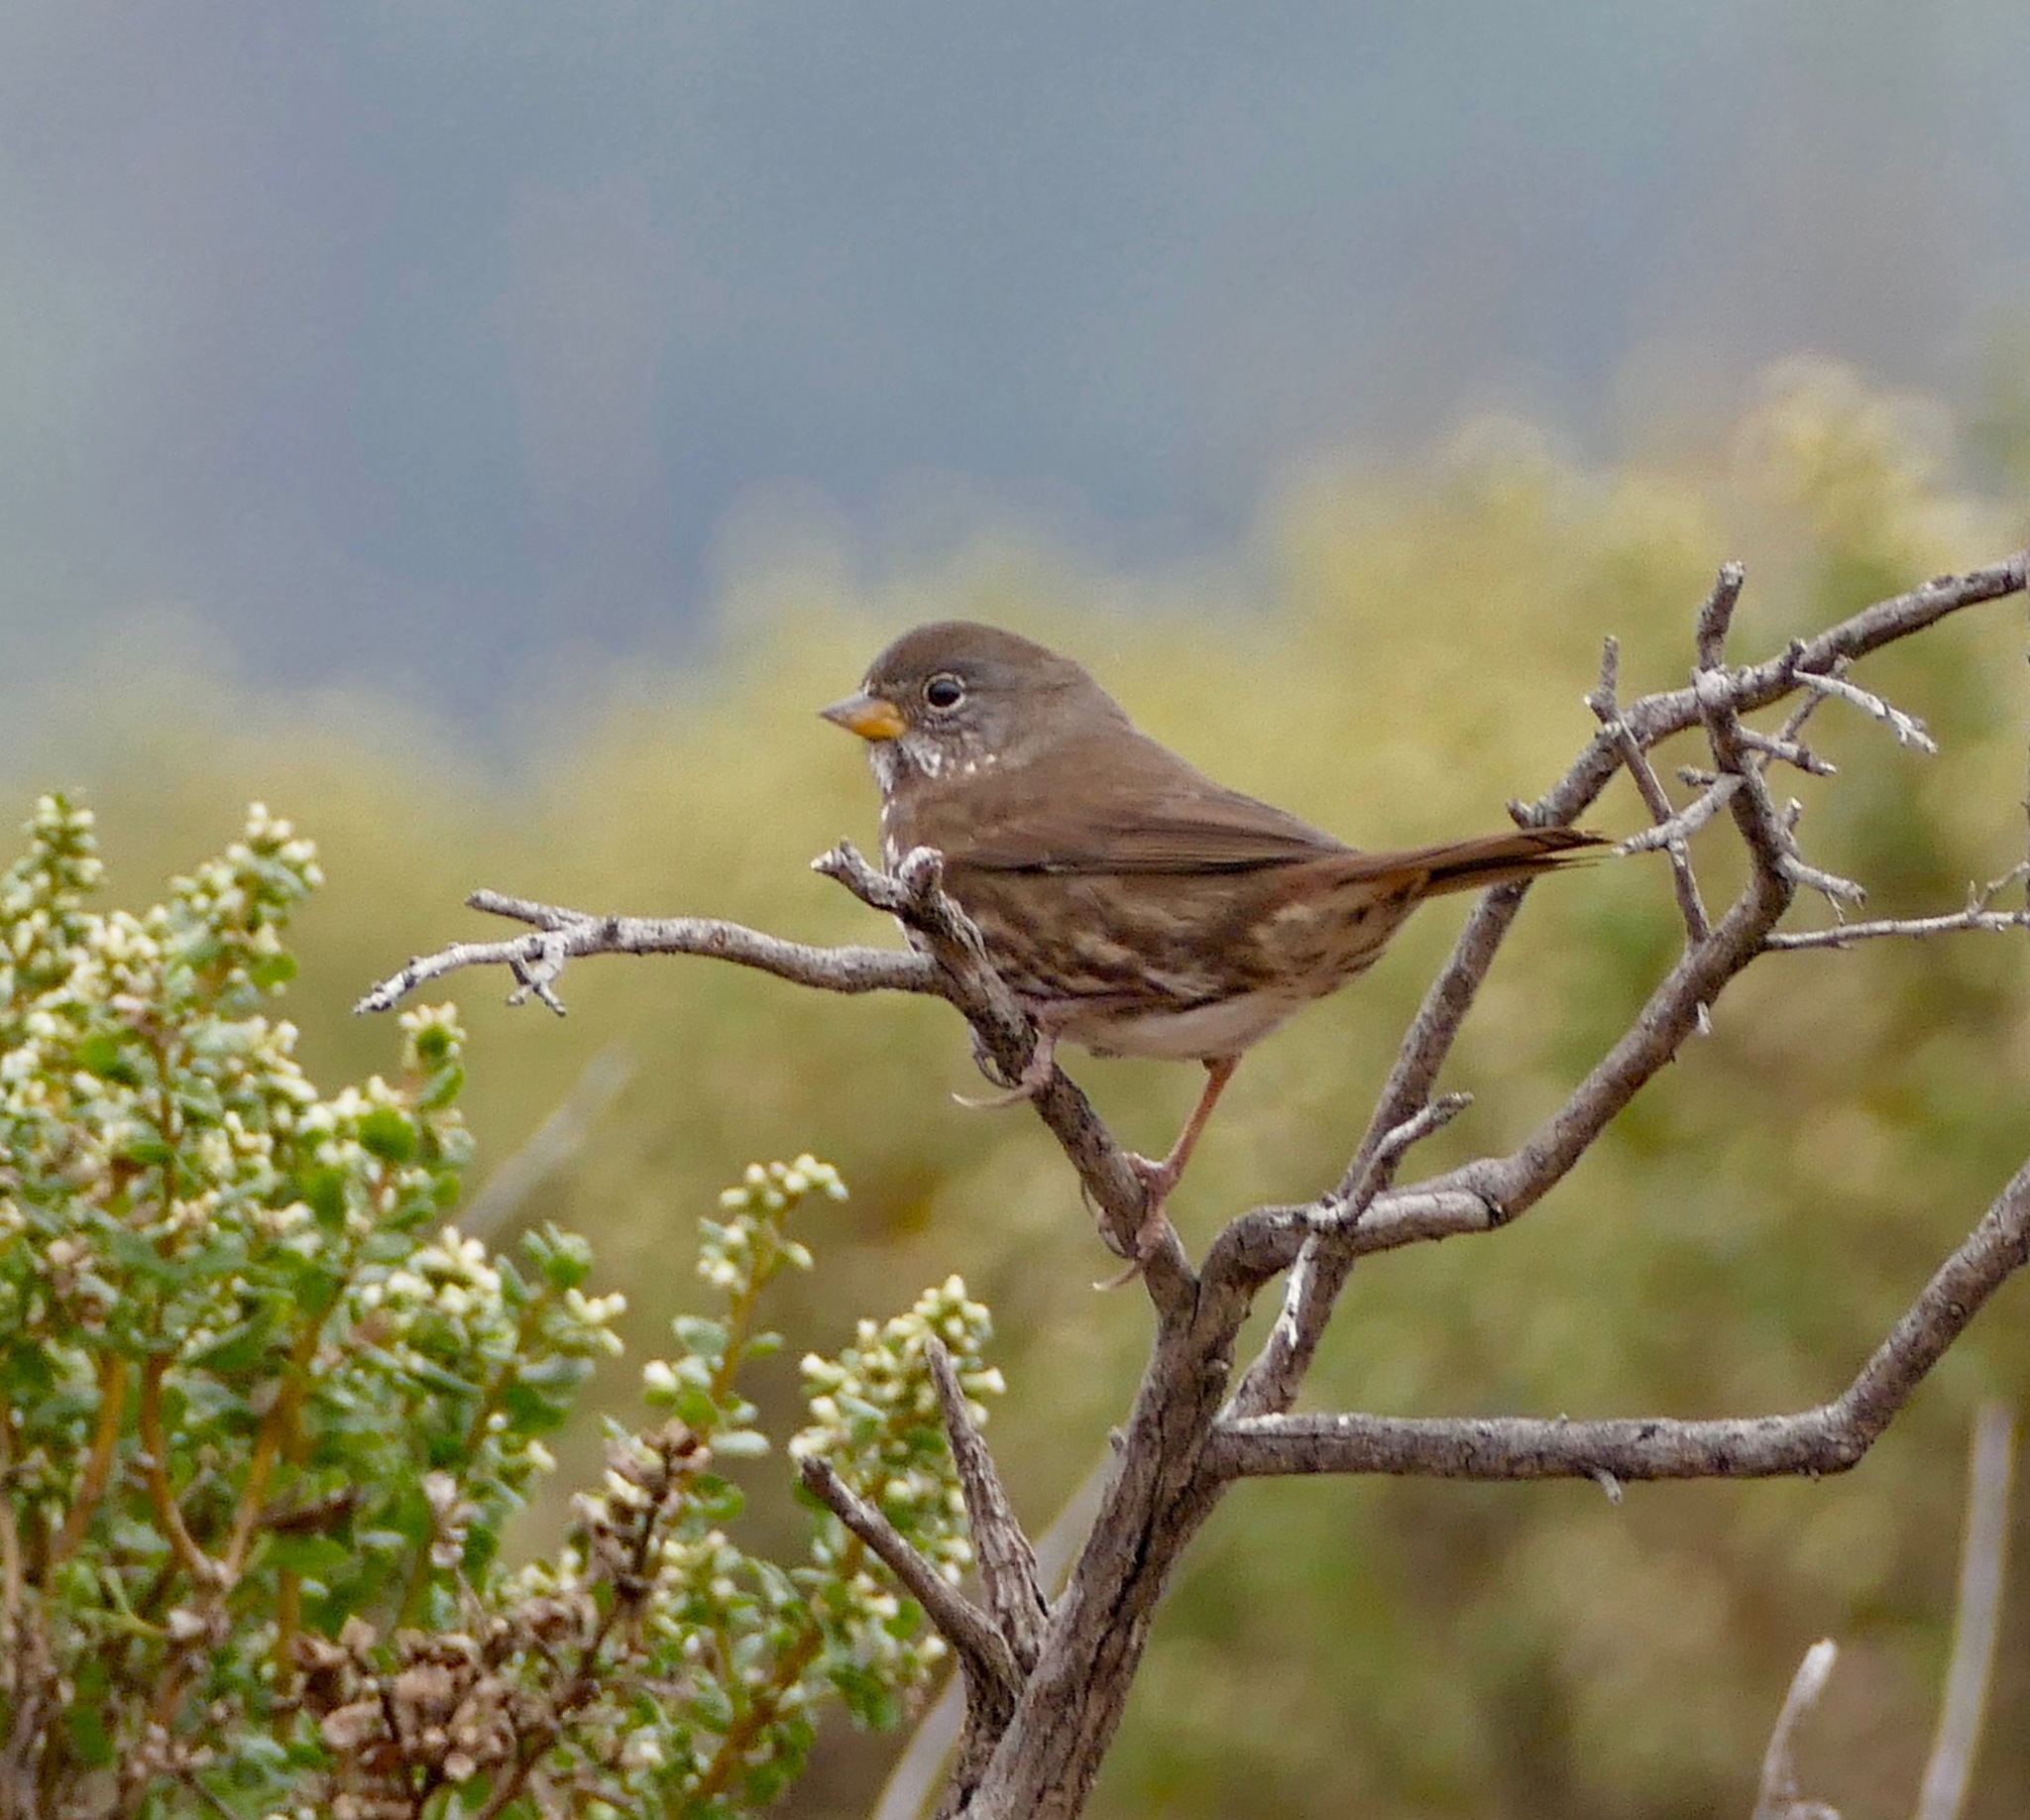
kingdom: Animalia
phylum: Chordata
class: Aves
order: Passeriformes
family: Passerellidae
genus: Passerella
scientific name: Passerella iliaca
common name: Fox sparrow
